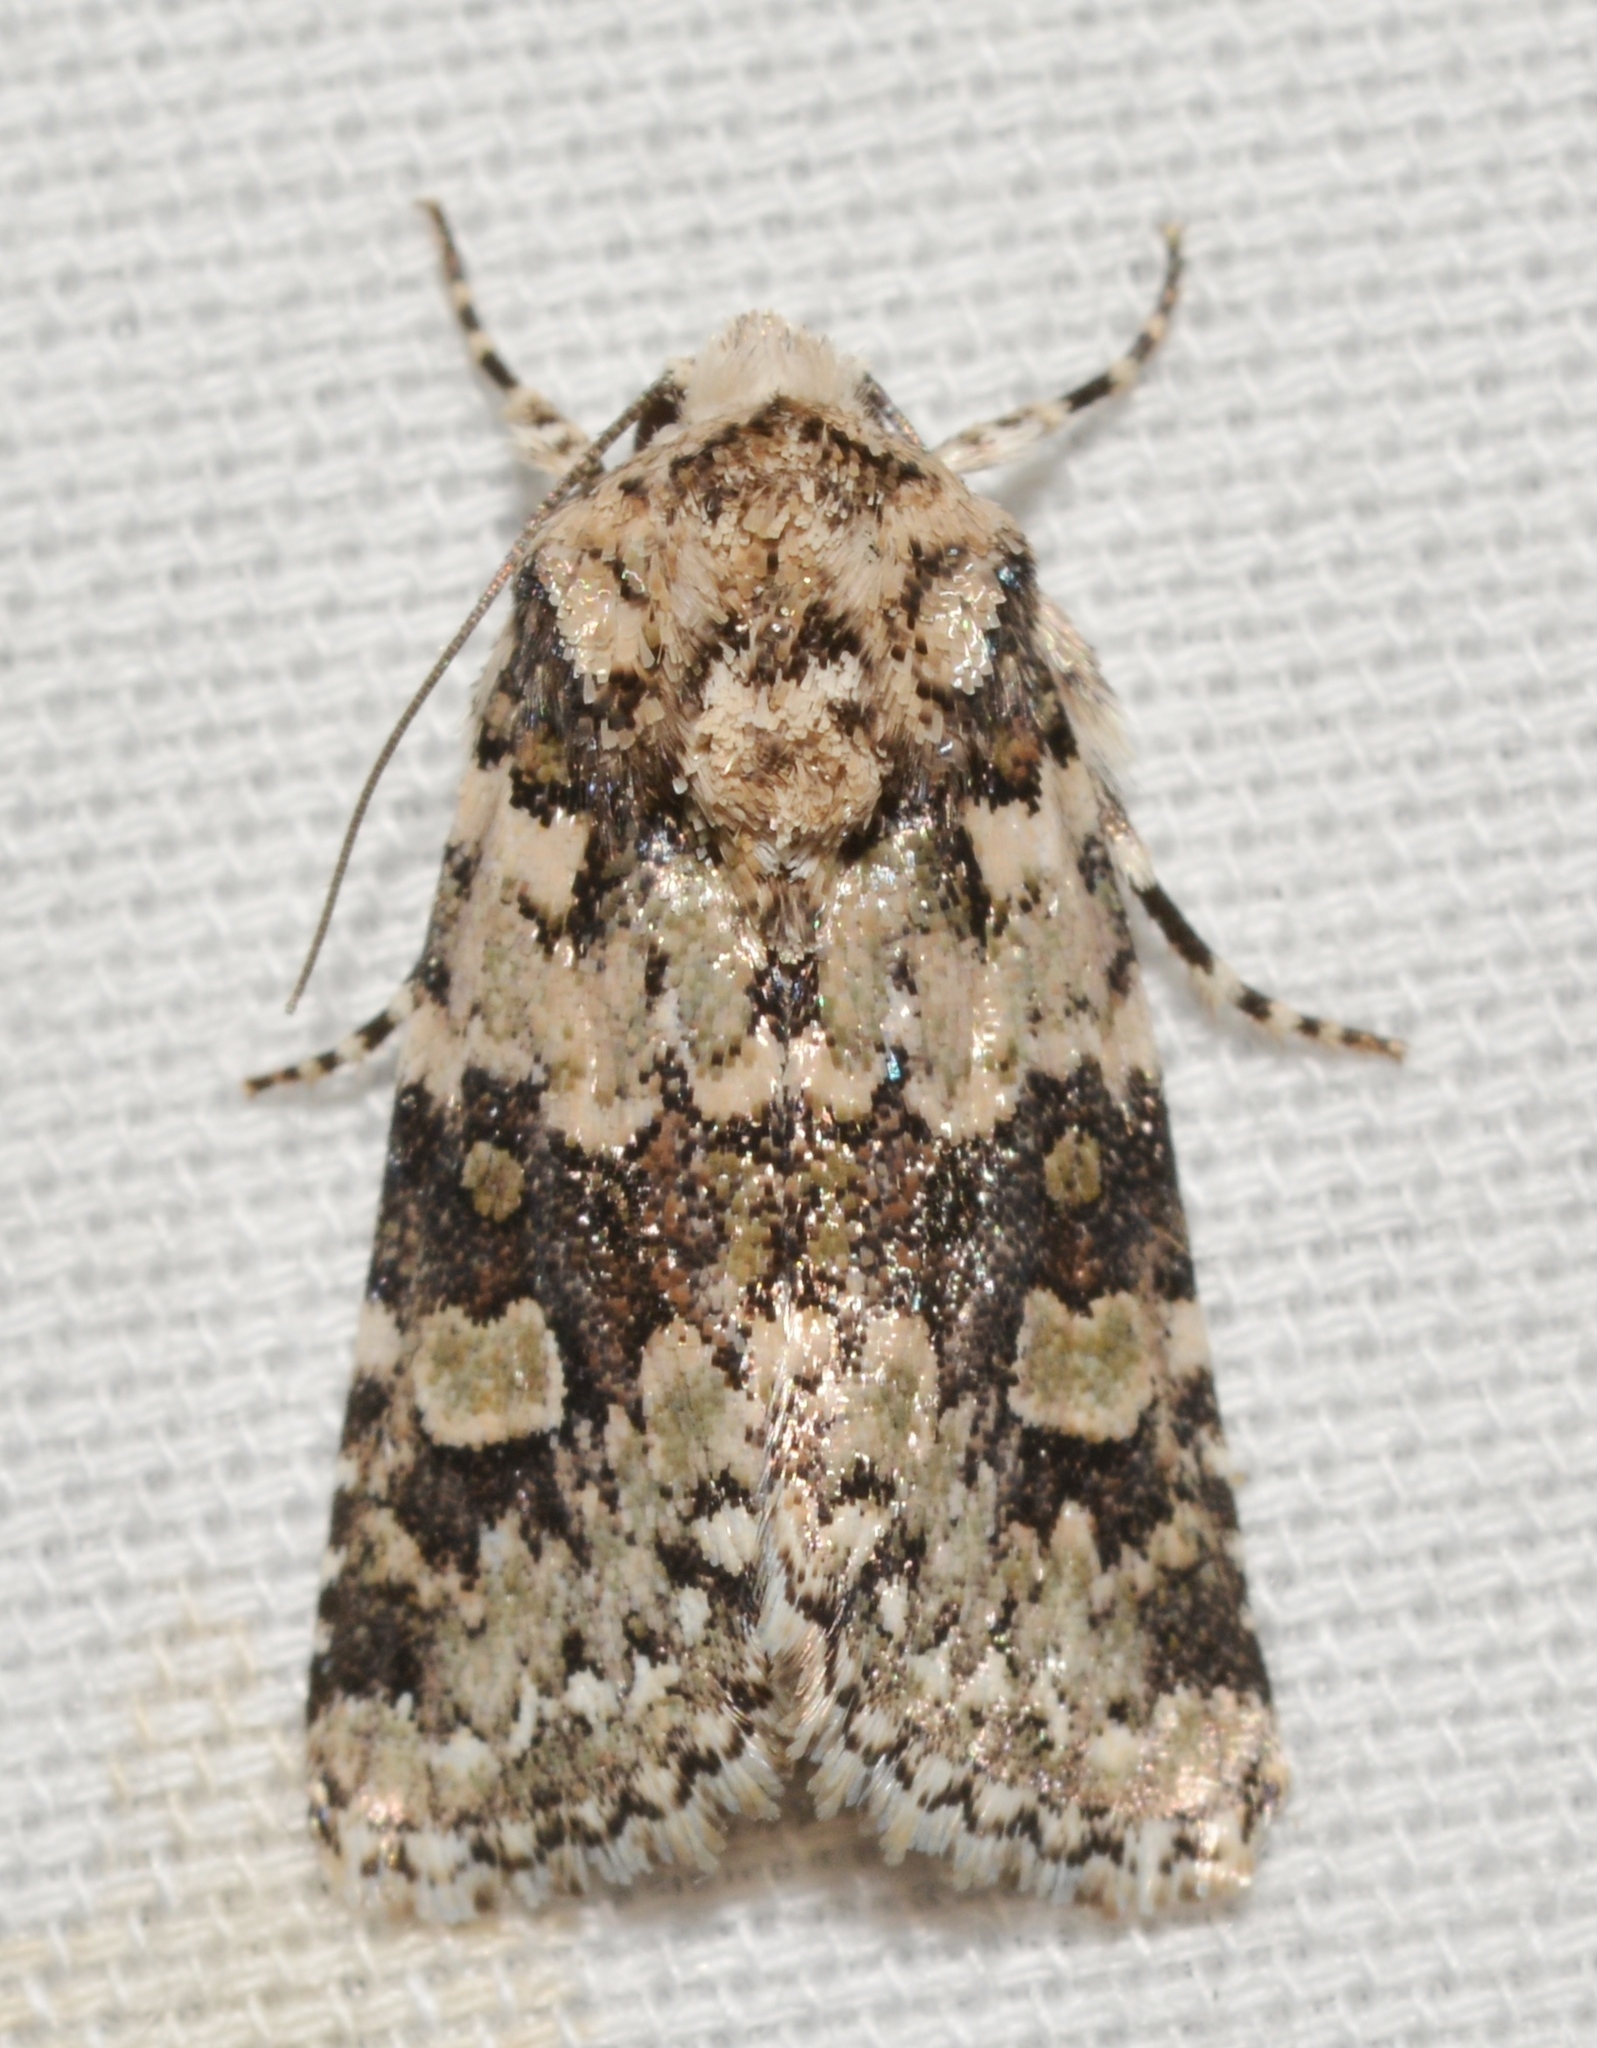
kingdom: Animalia
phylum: Arthropoda
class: Insecta
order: Lepidoptera
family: Noctuidae
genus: Lacinipolia
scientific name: Lacinipolia buscki
